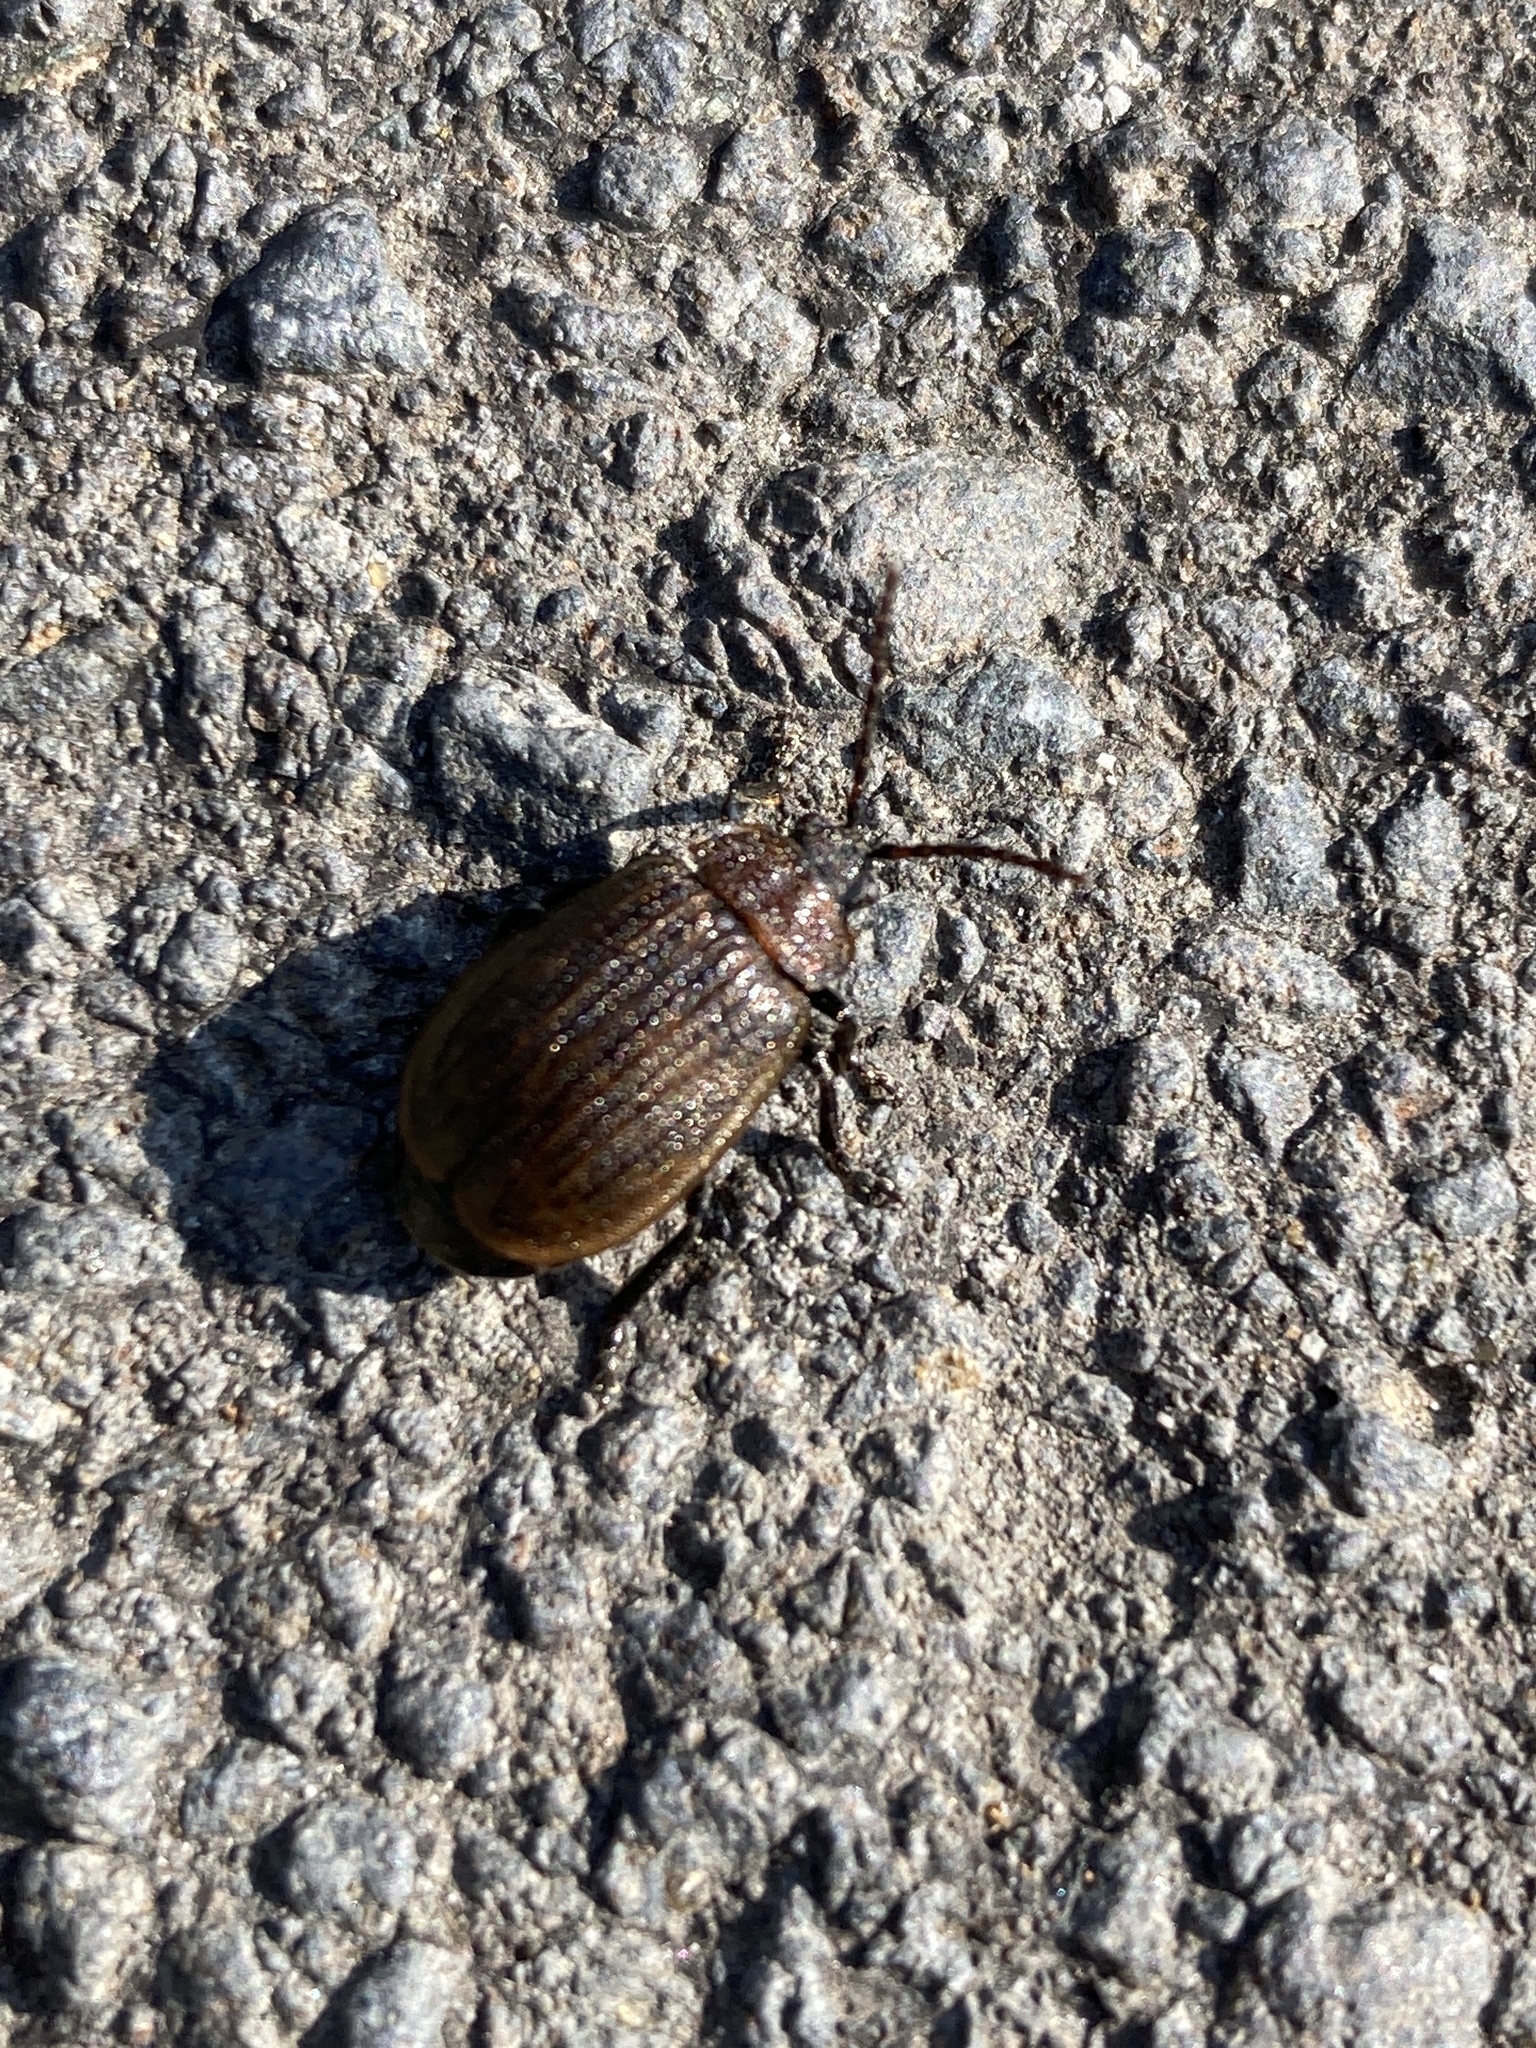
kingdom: Animalia
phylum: Arthropoda
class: Insecta
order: Coleoptera
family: Chrysomelidae
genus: Galeruca
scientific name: Galeruca pomonae
